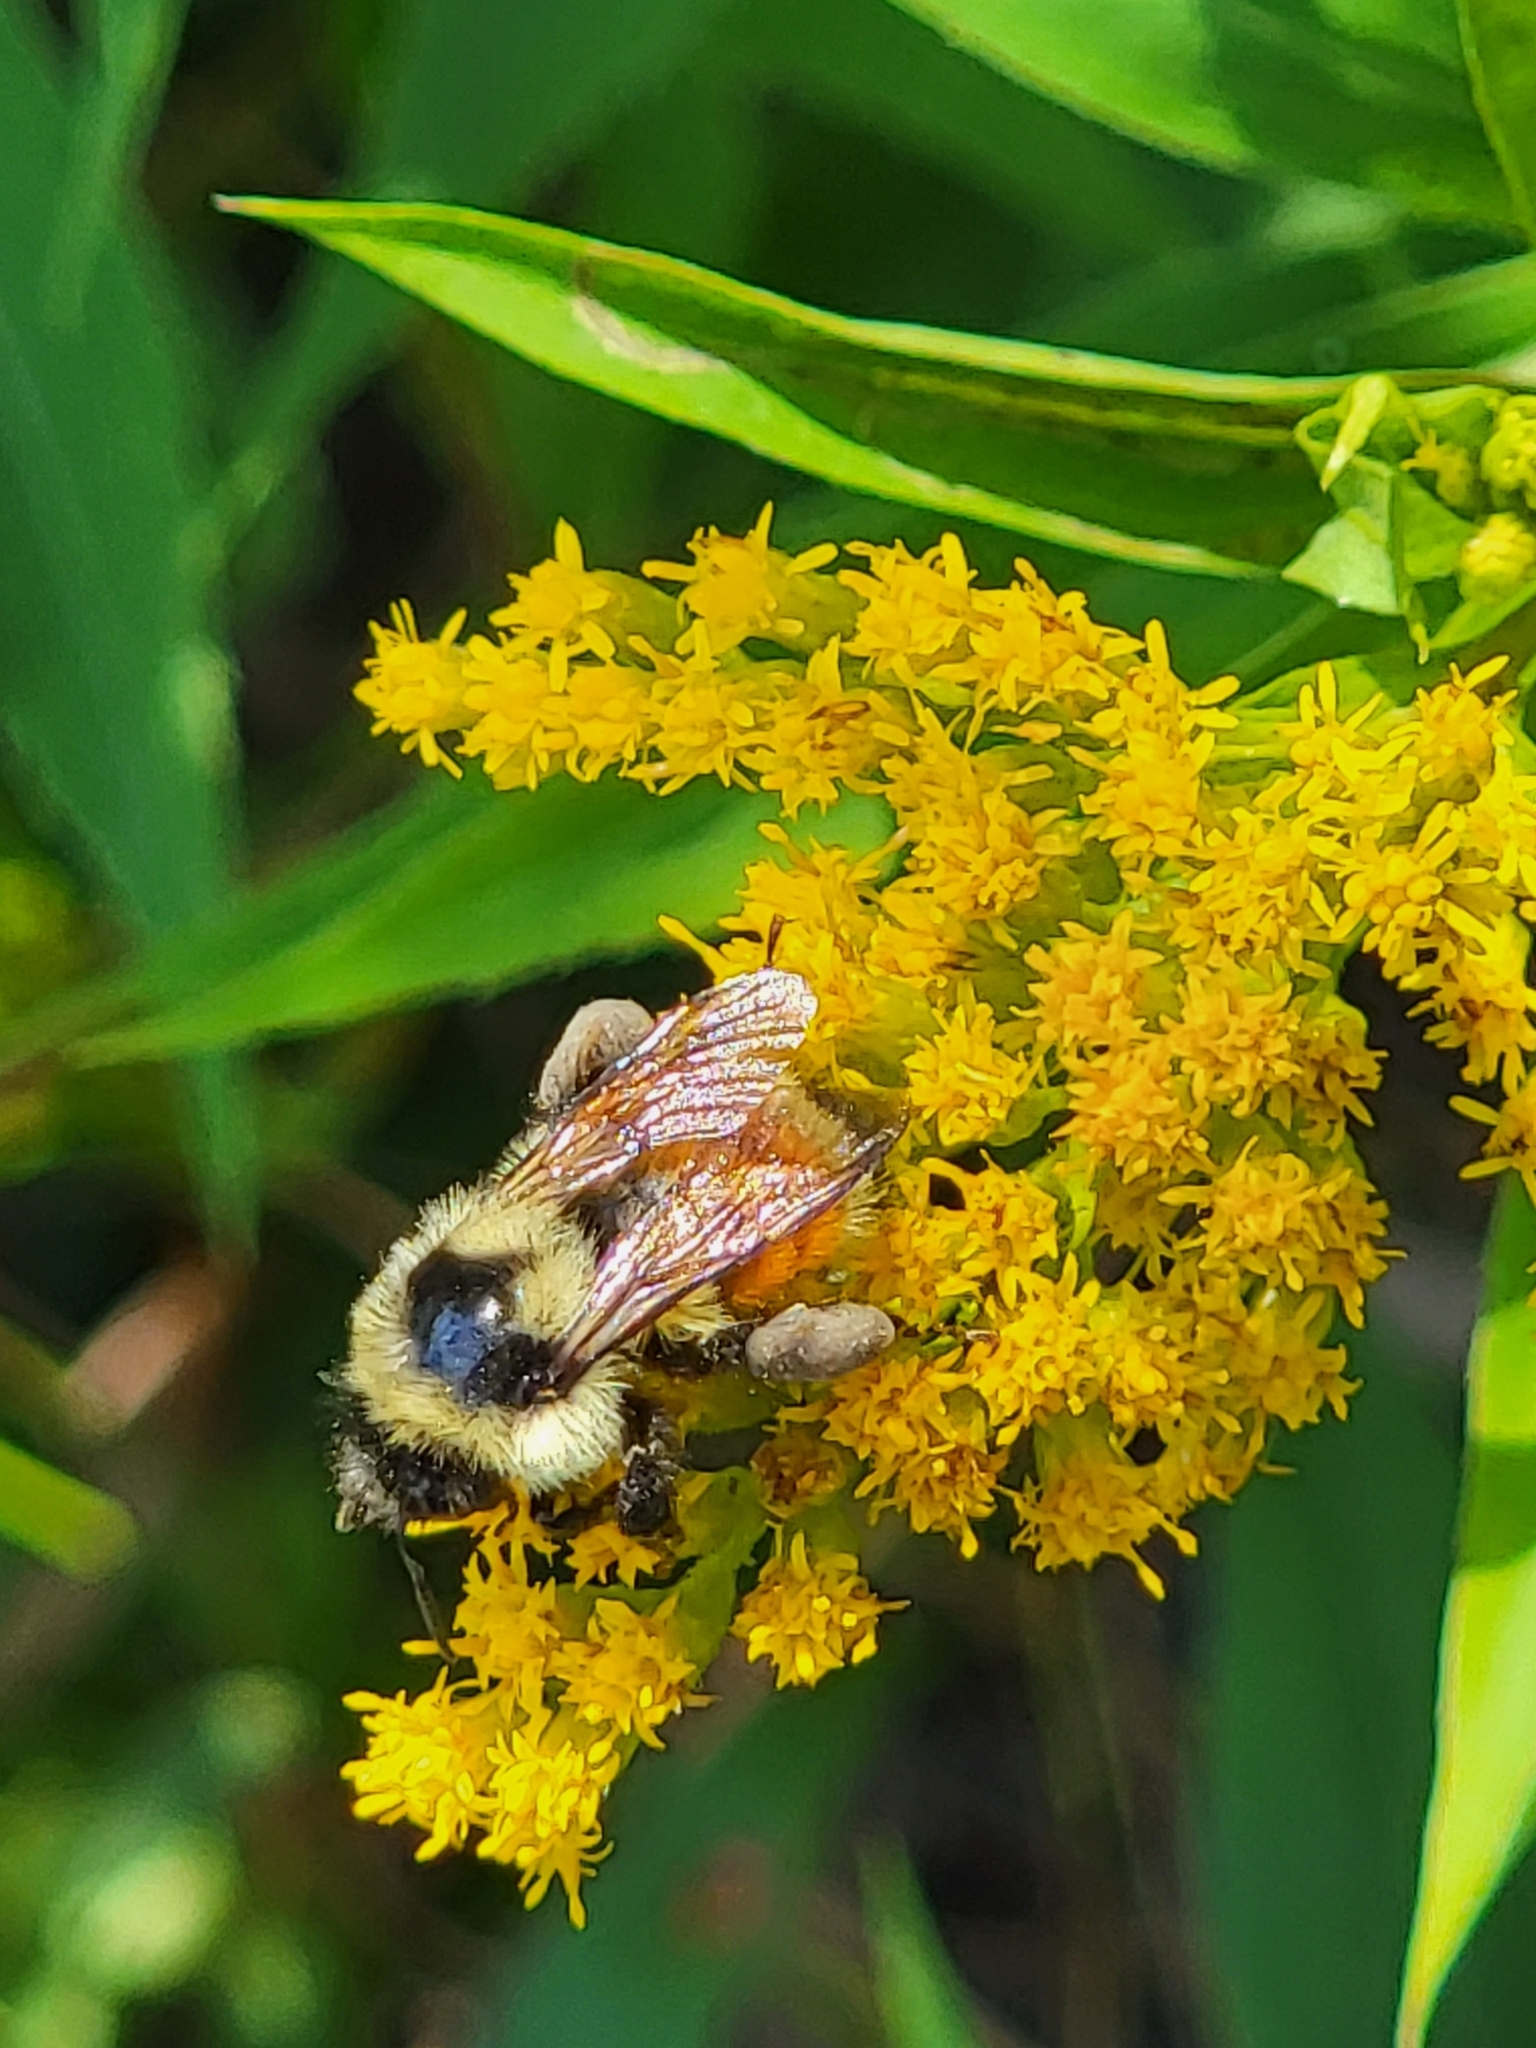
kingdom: Animalia
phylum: Arthropoda
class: Insecta
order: Hymenoptera
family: Apidae
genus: Bombus
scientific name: Bombus ternarius
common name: Tri-colored bumble bee
